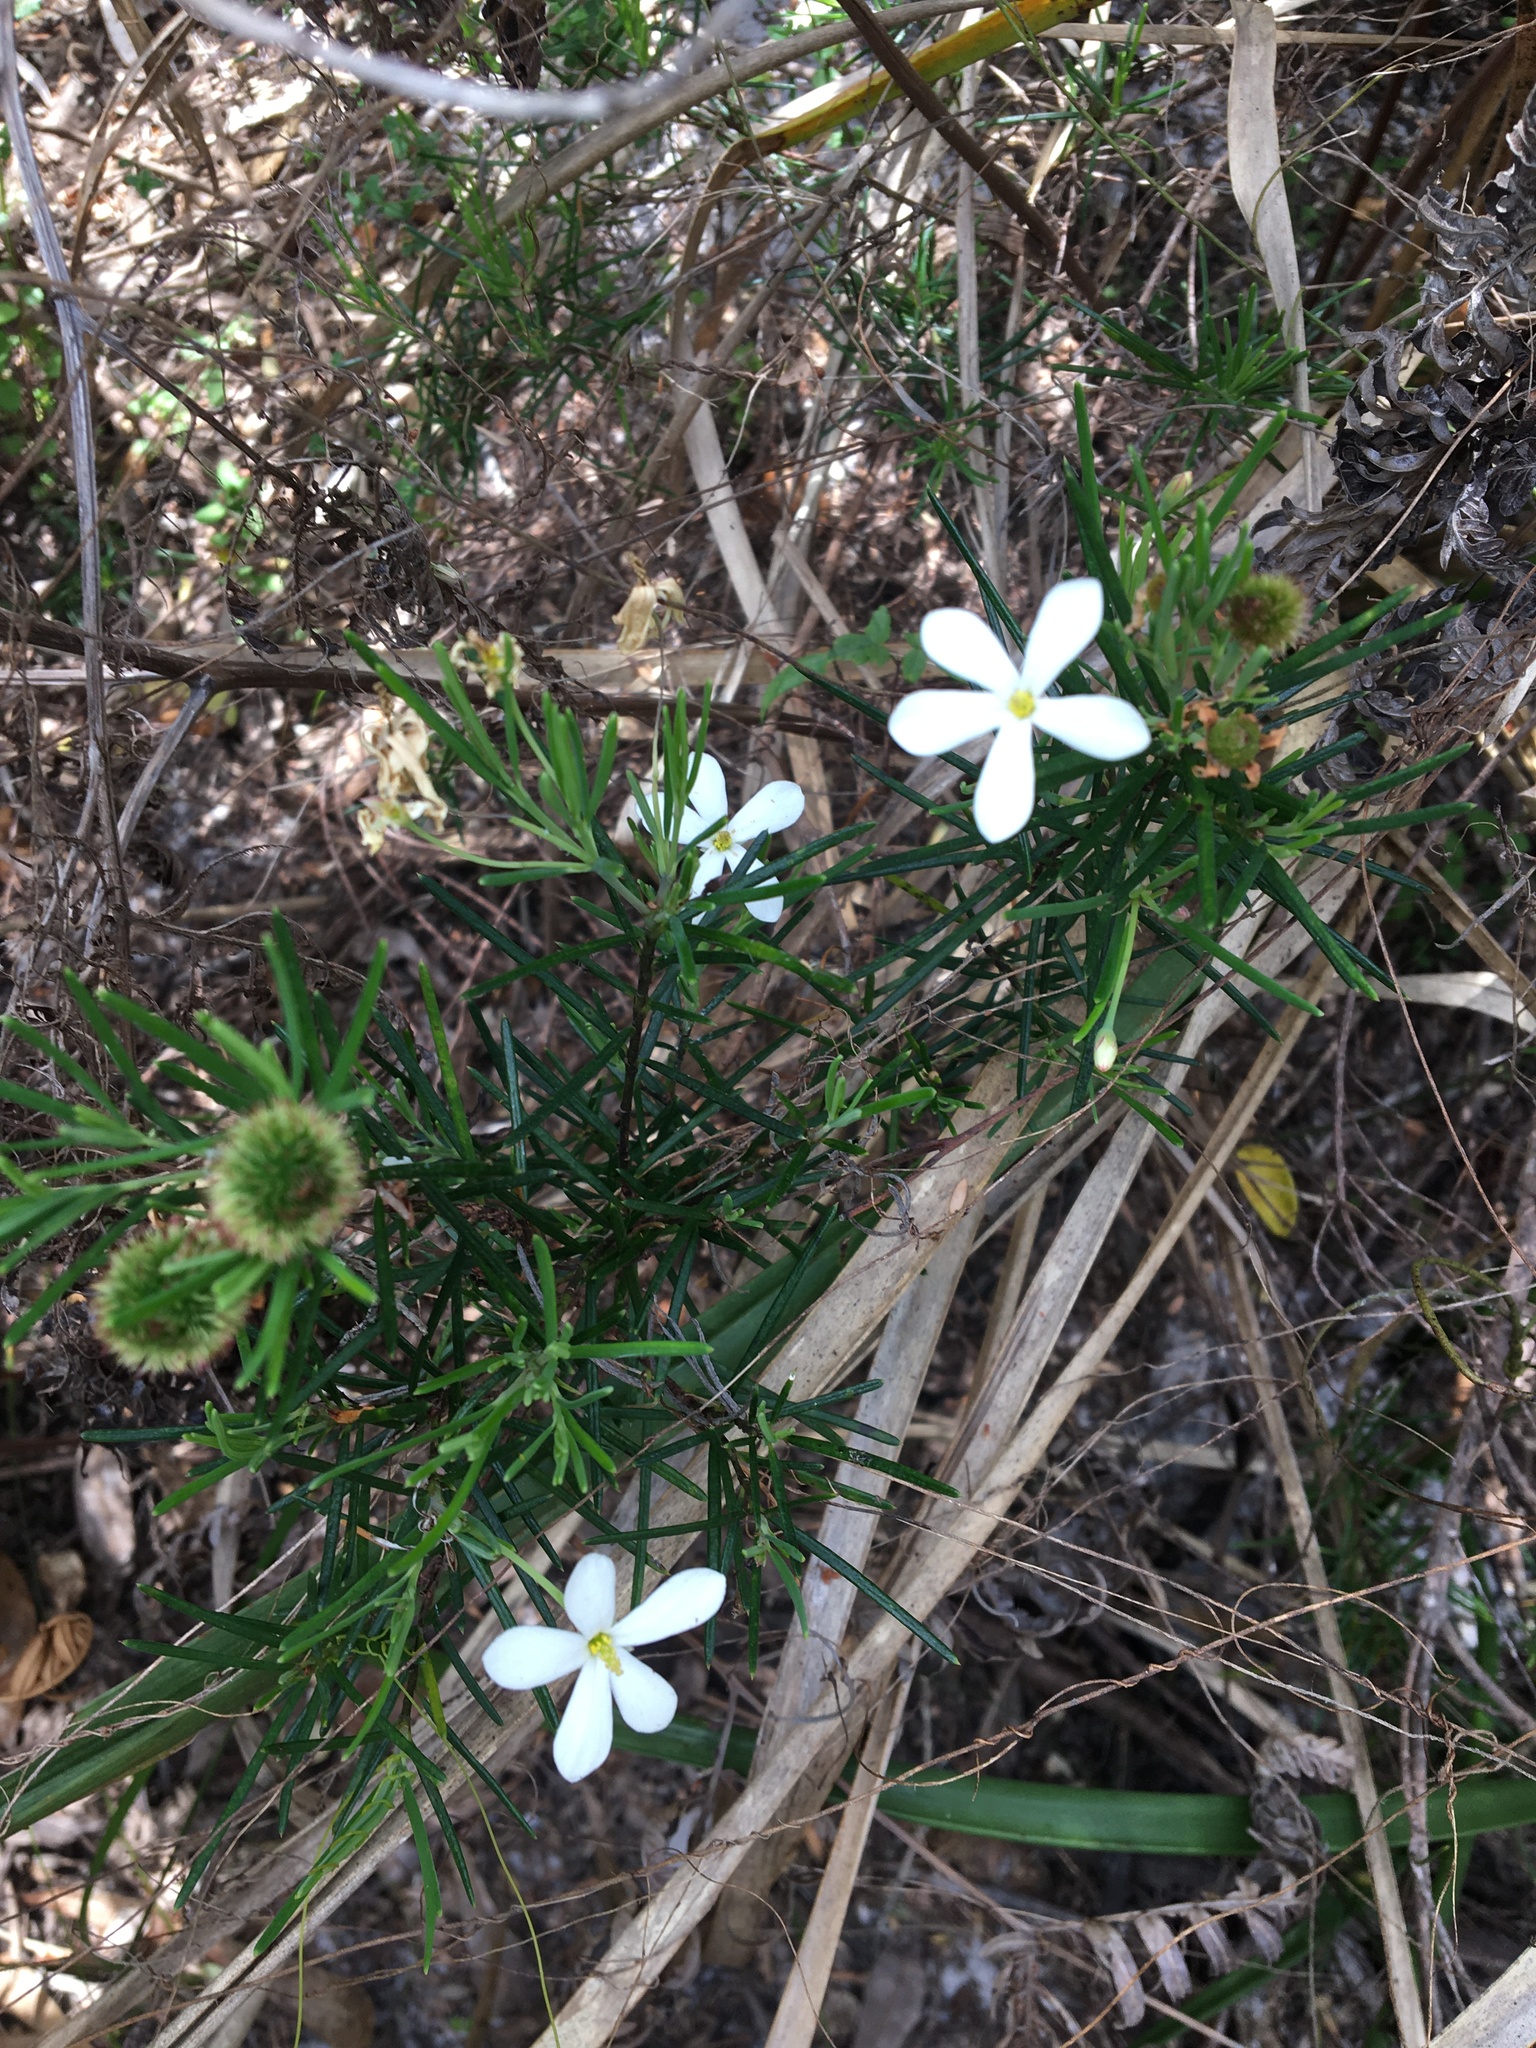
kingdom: Plantae
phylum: Tracheophyta
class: Magnoliopsida
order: Malpighiales
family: Euphorbiaceae
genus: Ricinocarpos
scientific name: Ricinocarpos pinifolius
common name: Weddingbush
